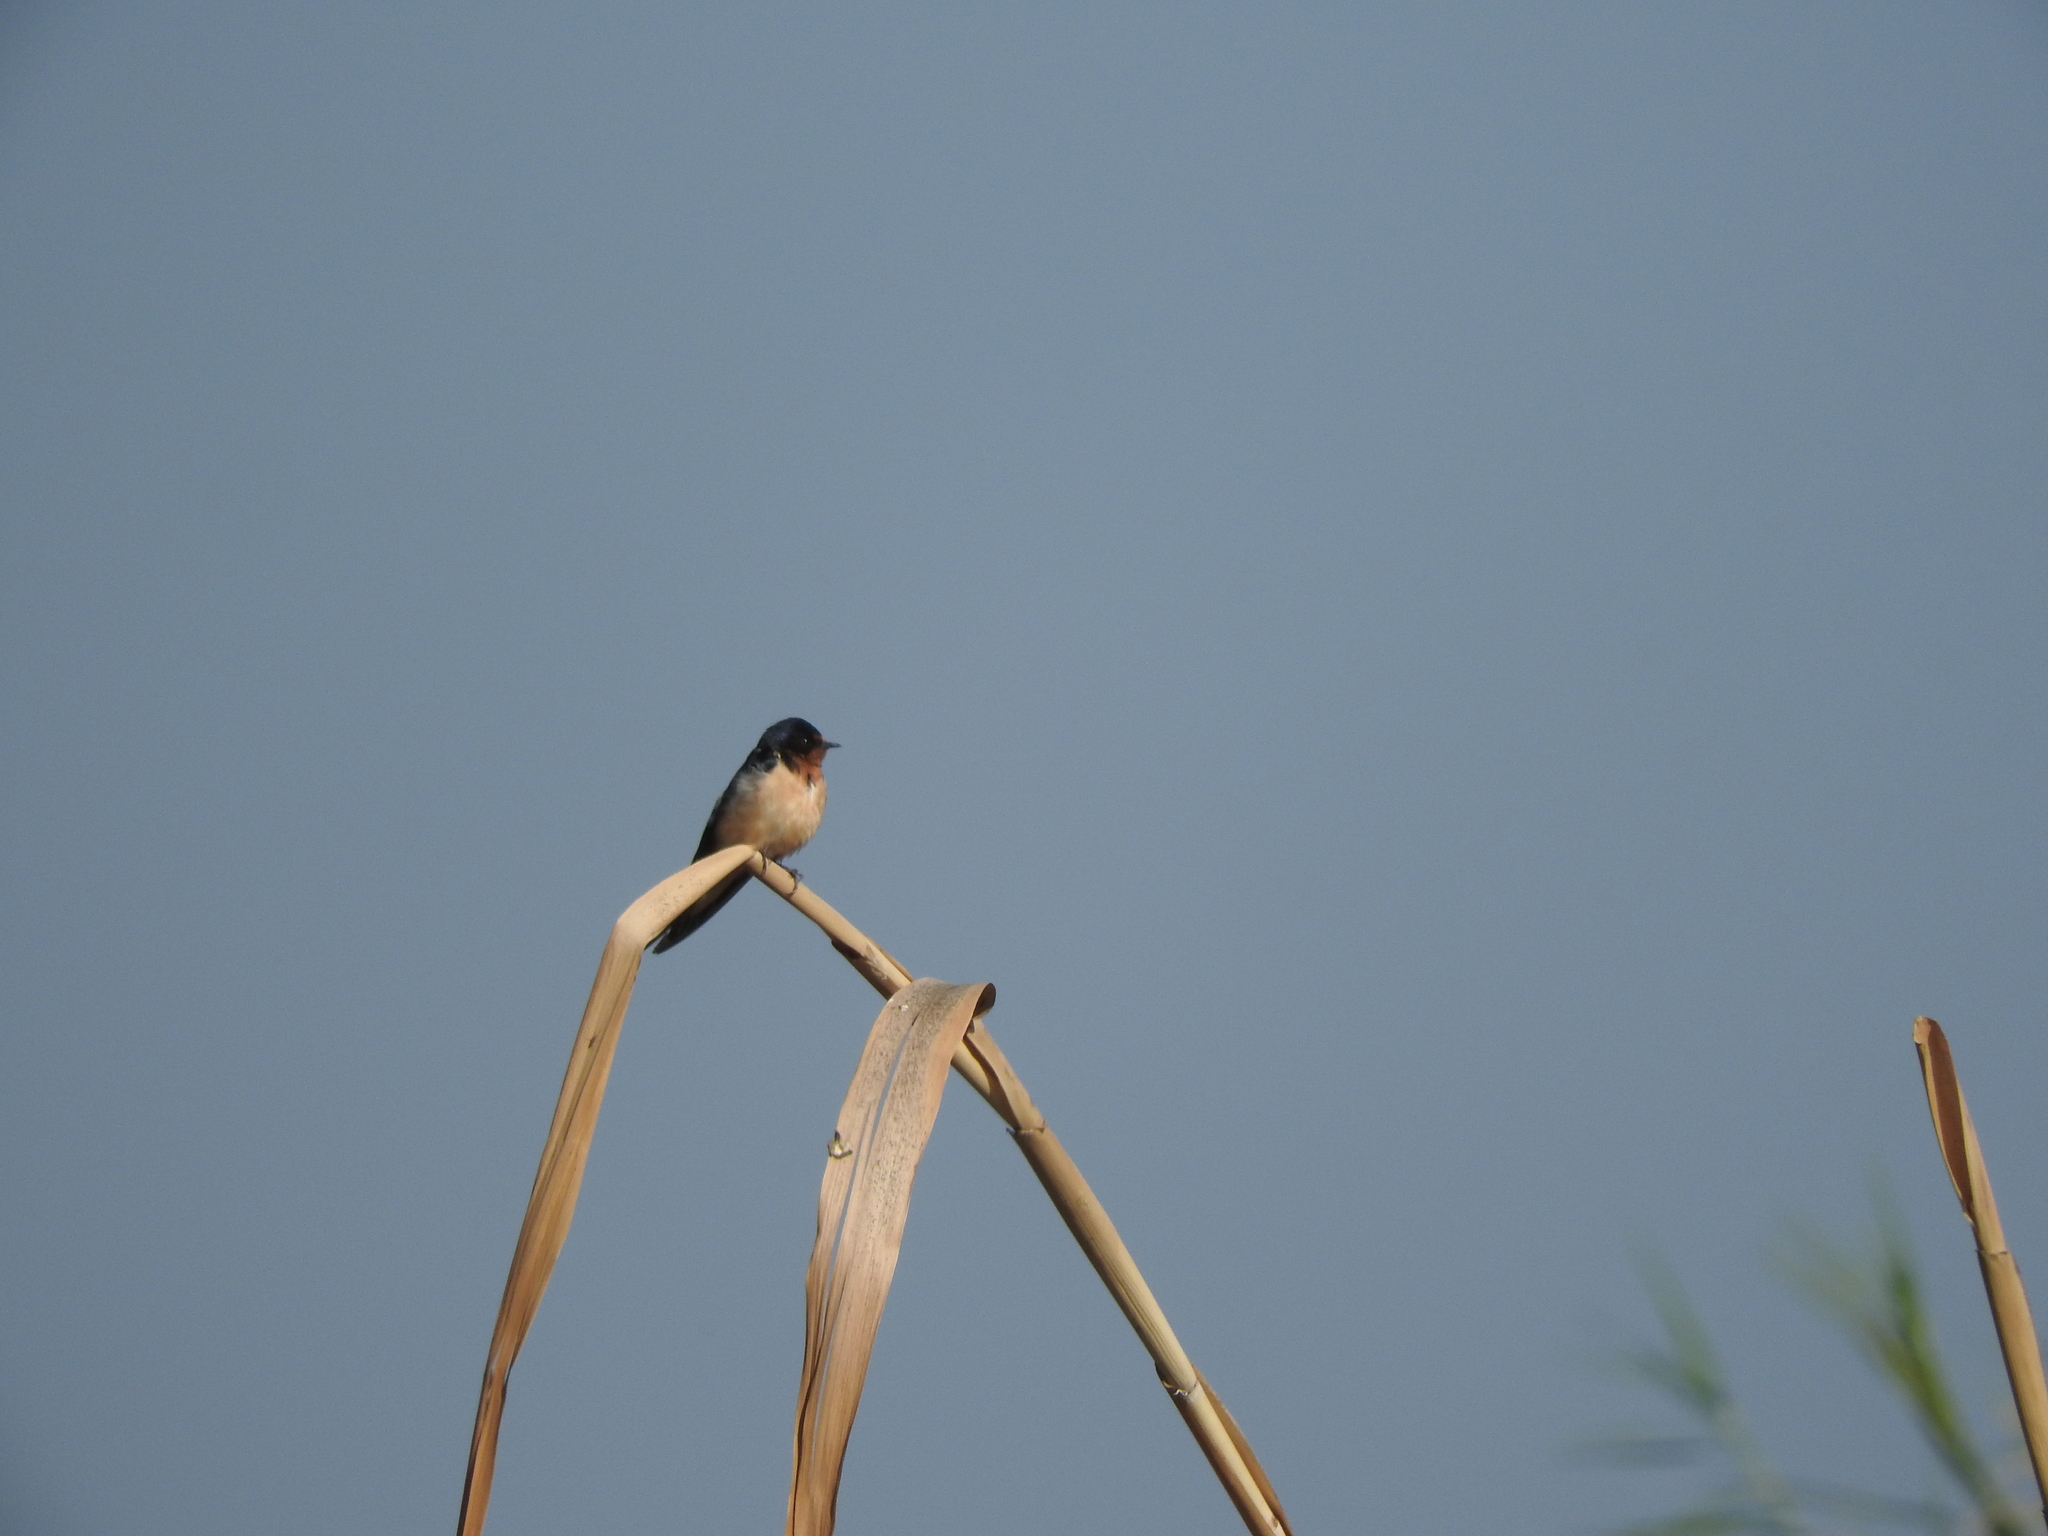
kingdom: Animalia
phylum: Chordata
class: Aves
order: Passeriformes
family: Hirundinidae
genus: Hirundo
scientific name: Hirundo rustica
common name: Barn swallow
